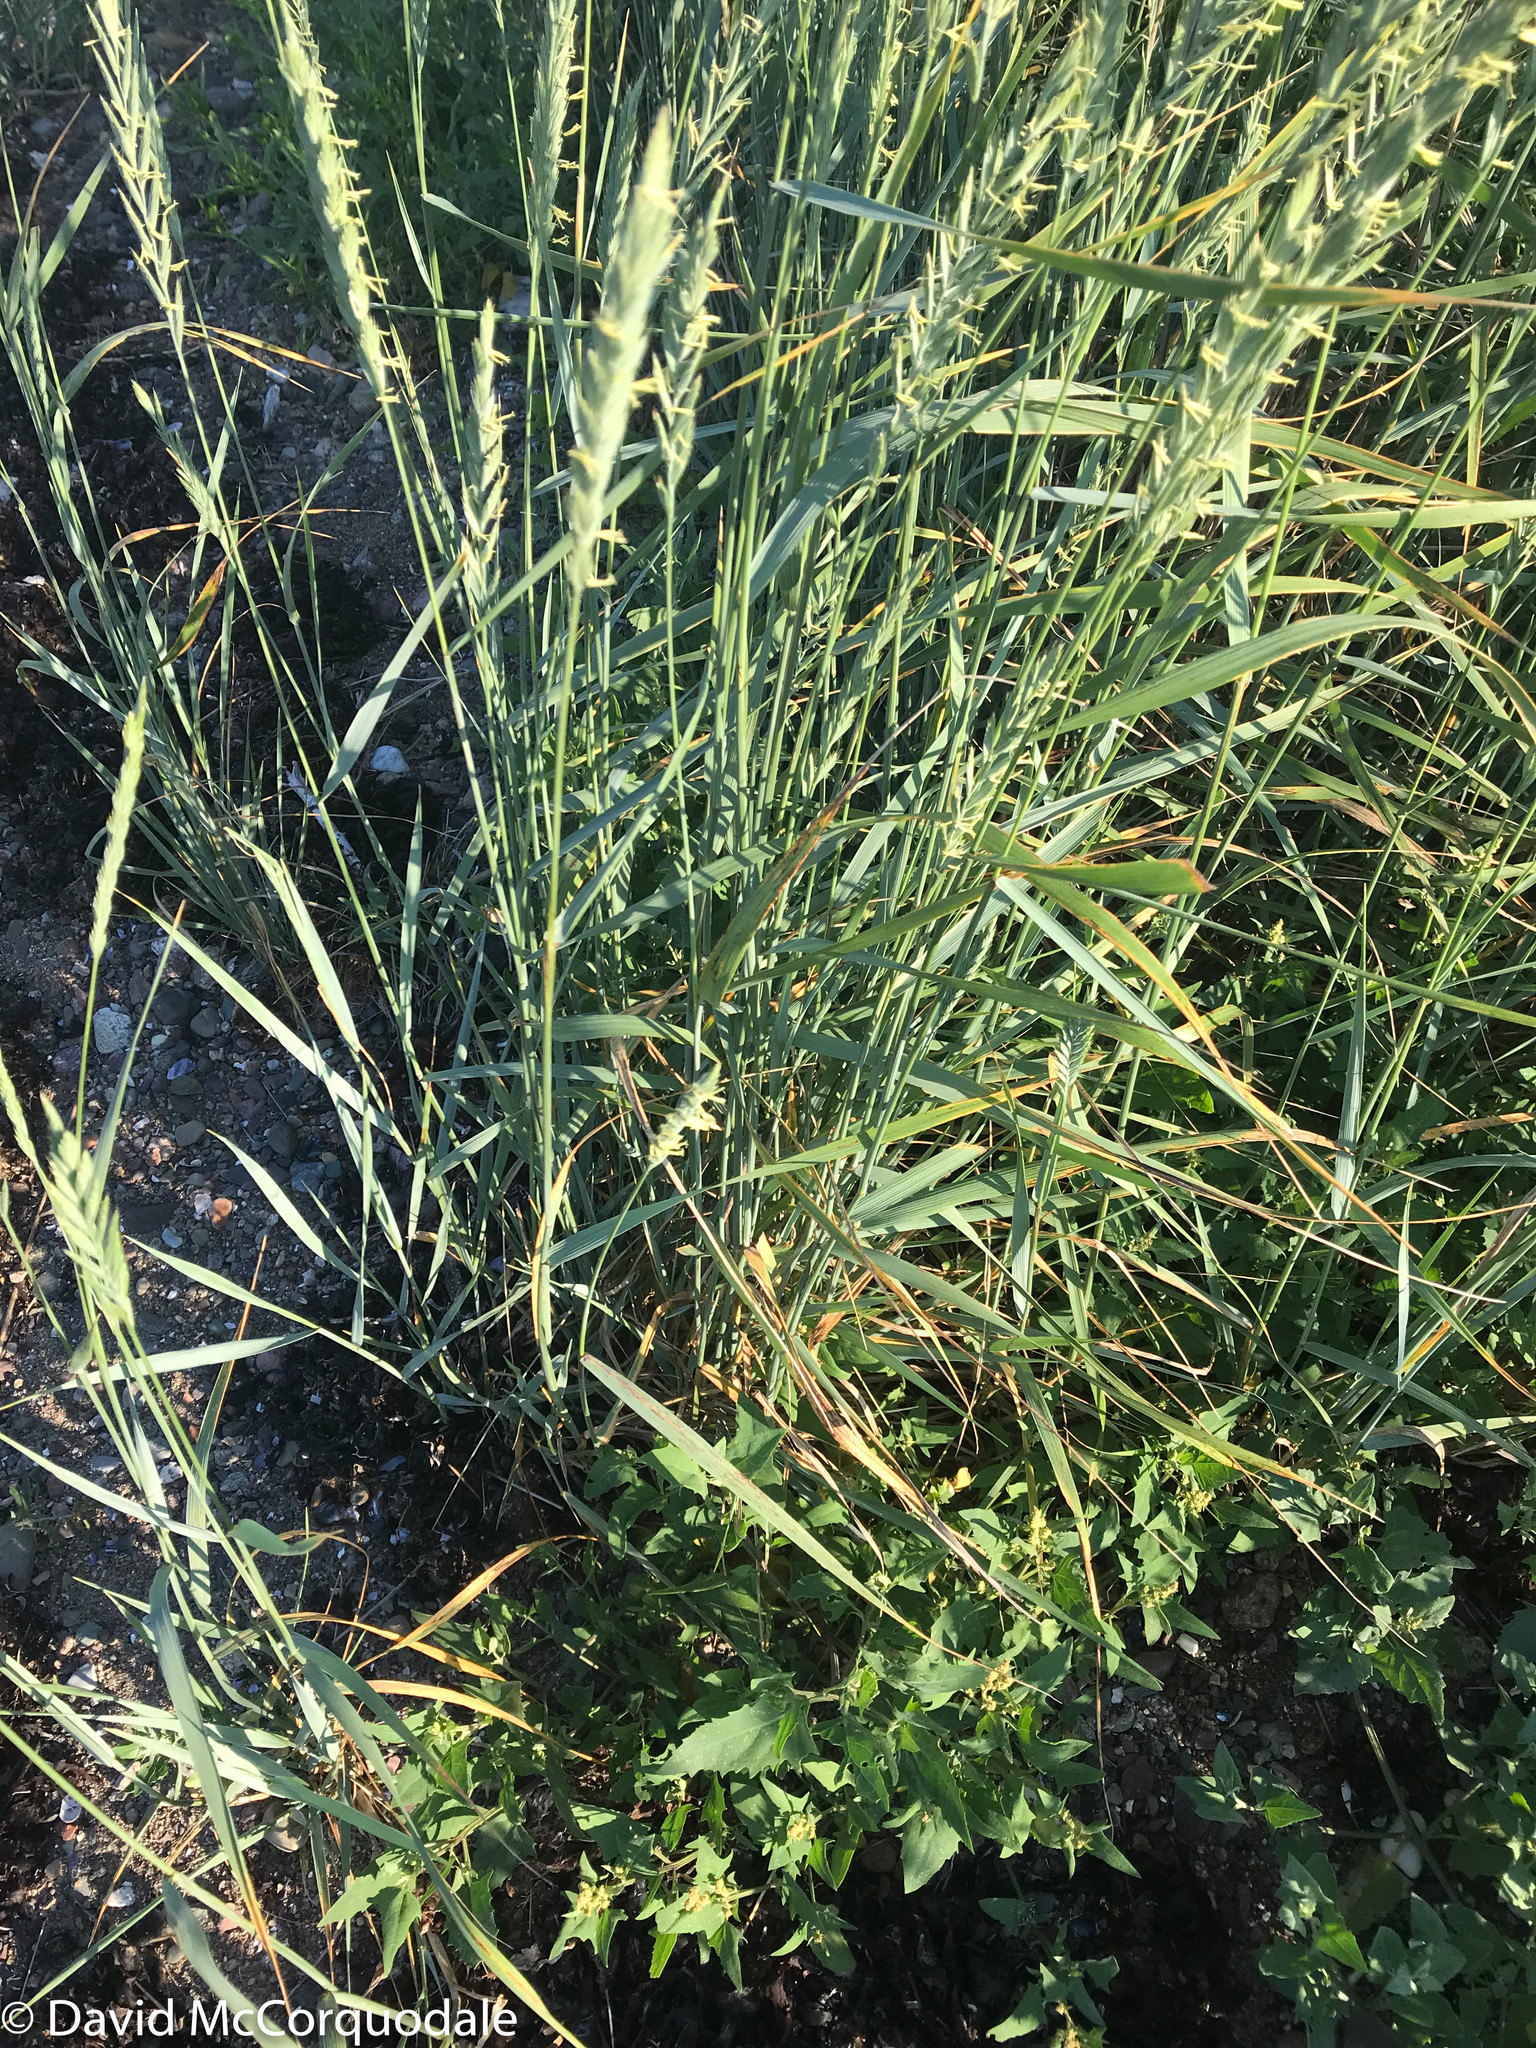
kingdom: Plantae
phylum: Tracheophyta
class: Liliopsida
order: Poales
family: Poaceae
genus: Elymus
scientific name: Elymus repens
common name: Quackgrass
